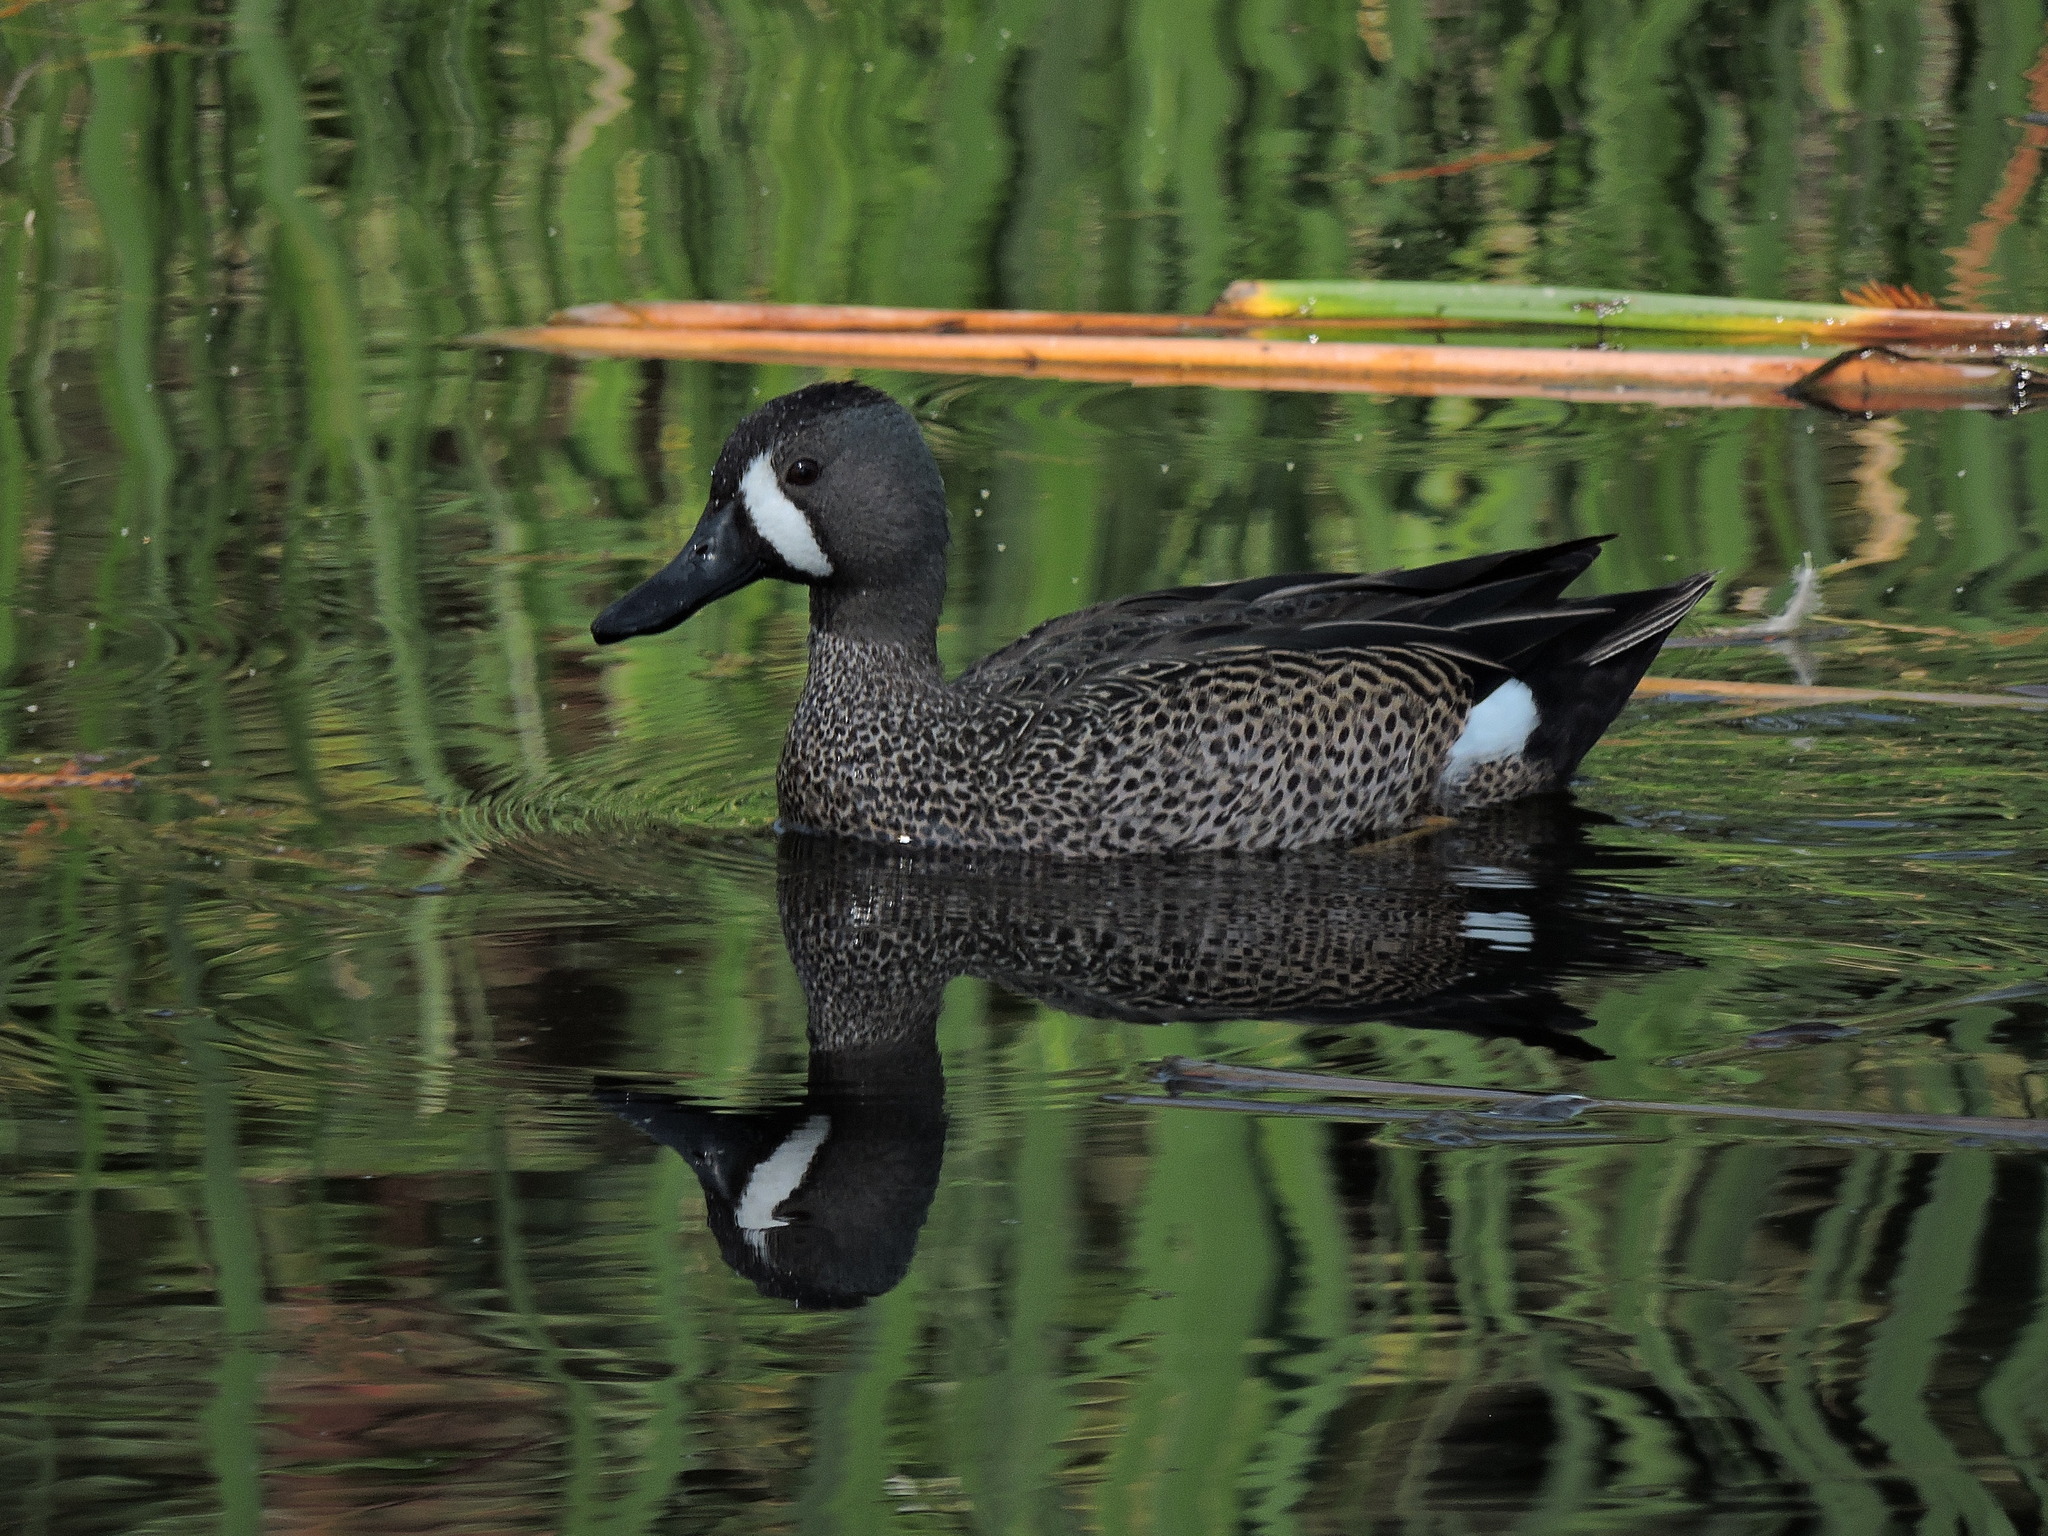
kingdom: Animalia
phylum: Chordata
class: Aves
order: Anseriformes
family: Anatidae
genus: Spatula
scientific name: Spatula discors
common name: Blue-winged teal
